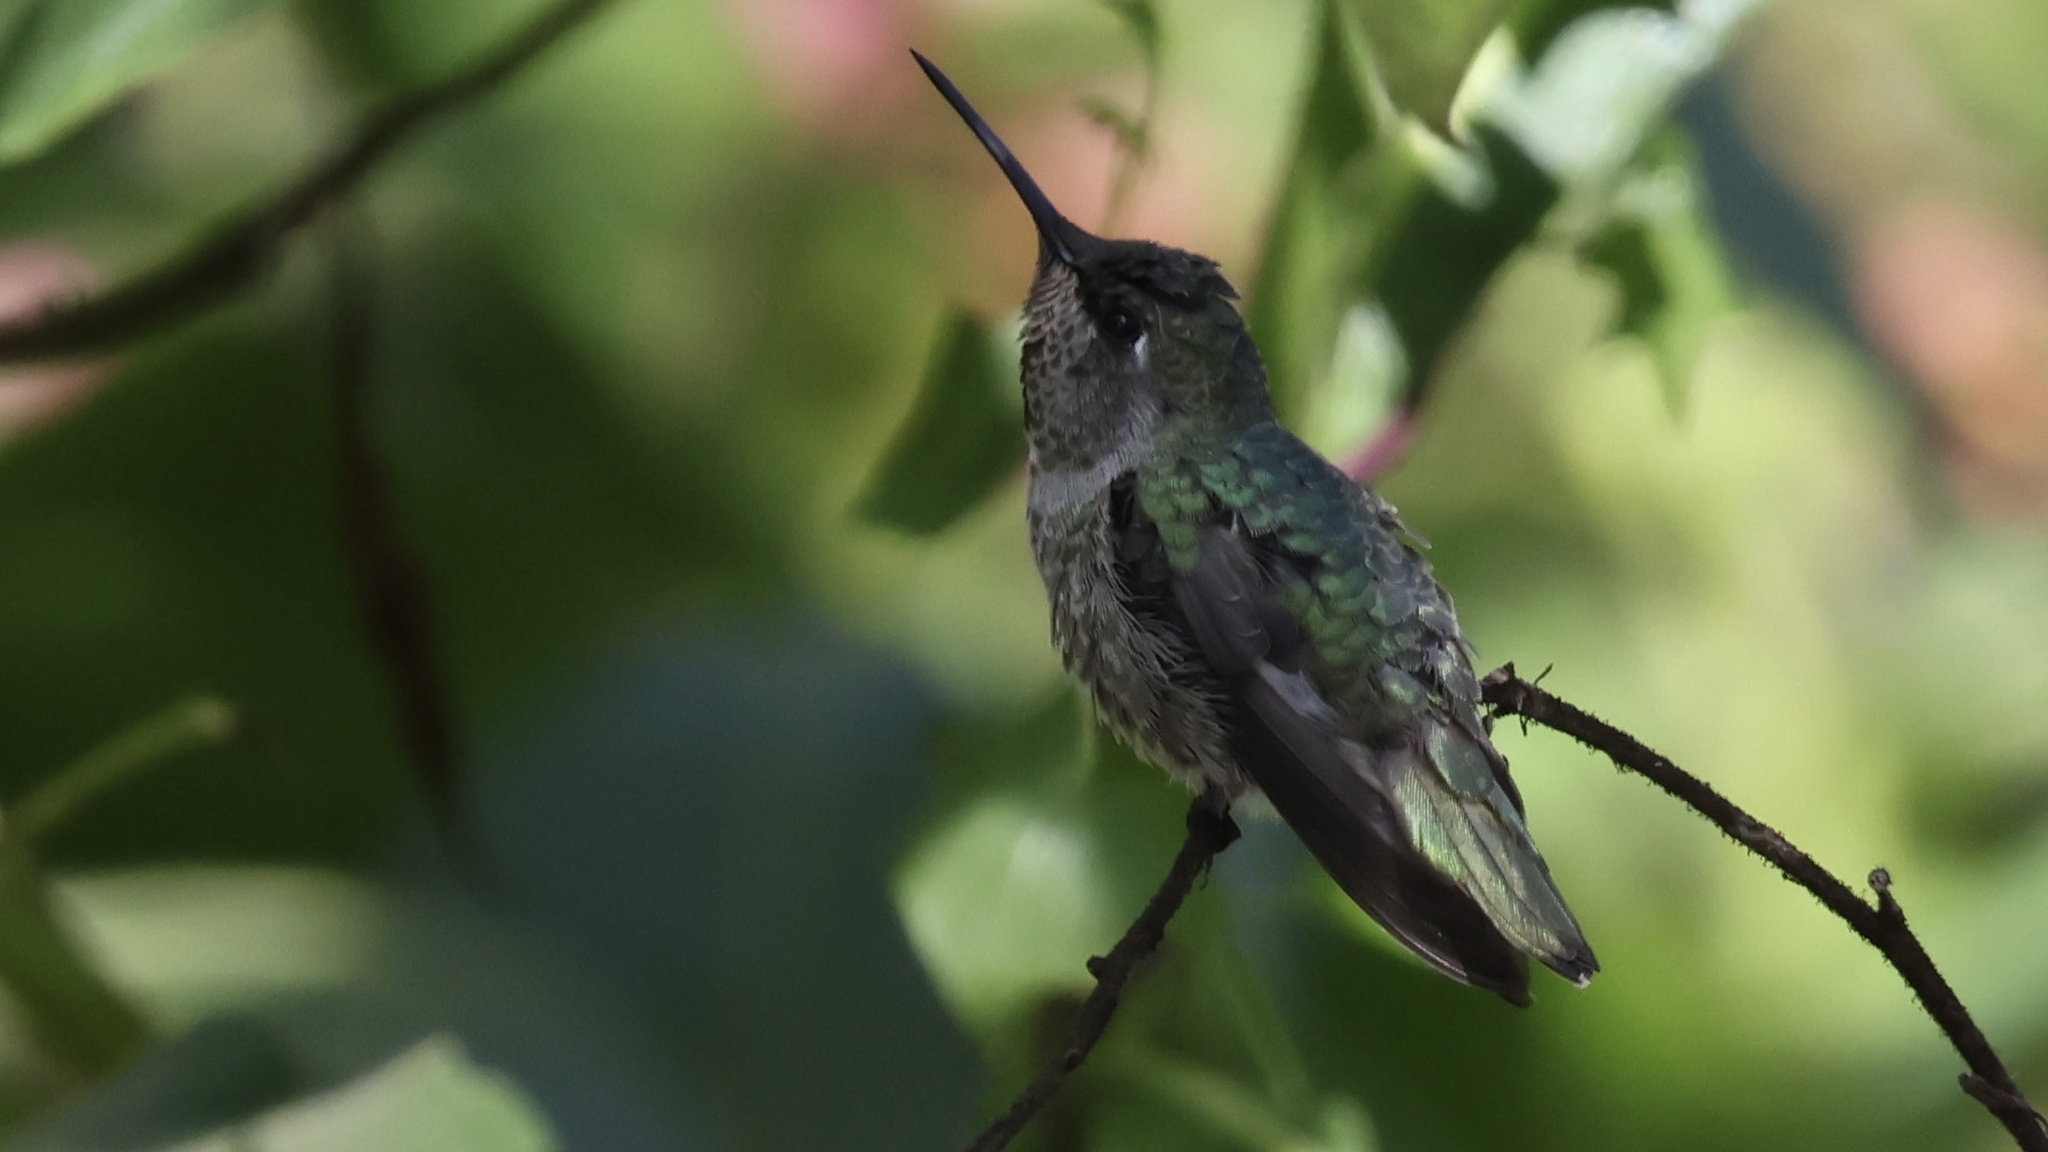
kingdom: Animalia
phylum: Chordata
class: Aves
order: Apodiformes
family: Trochilidae
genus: Calypte
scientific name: Calypte anna
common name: Anna's hummingbird
